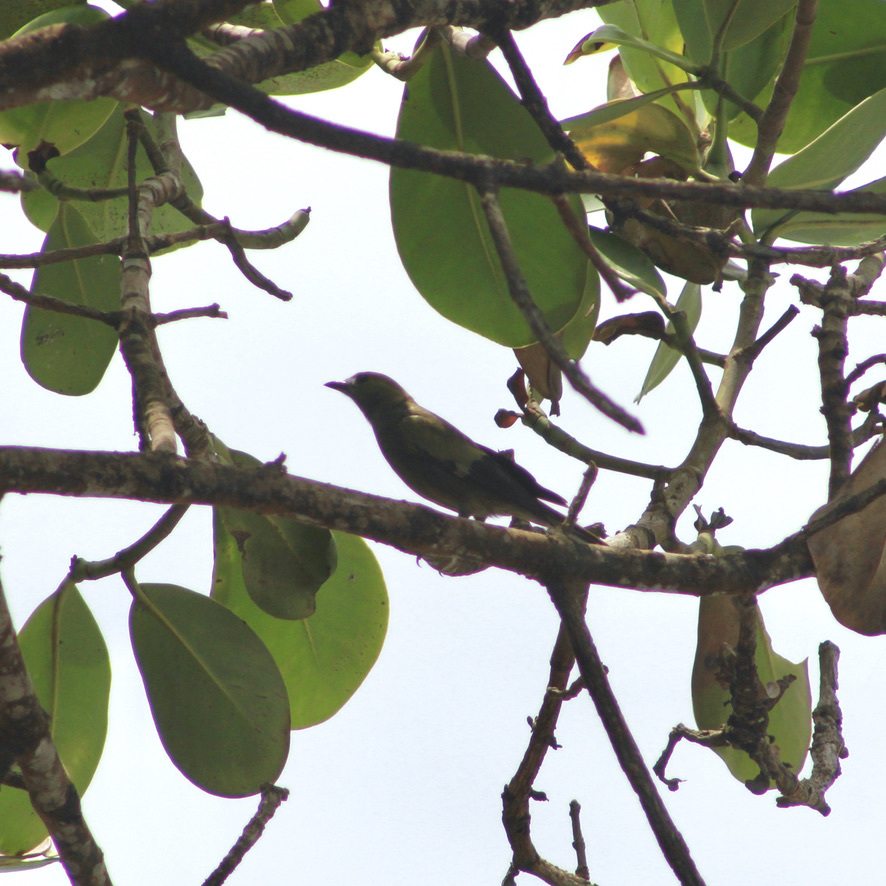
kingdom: Animalia
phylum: Chordata
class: Aves
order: Passeriformes
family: Thraupidae
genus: Thraupis
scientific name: Thraupis palmarum
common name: Palm tanager
